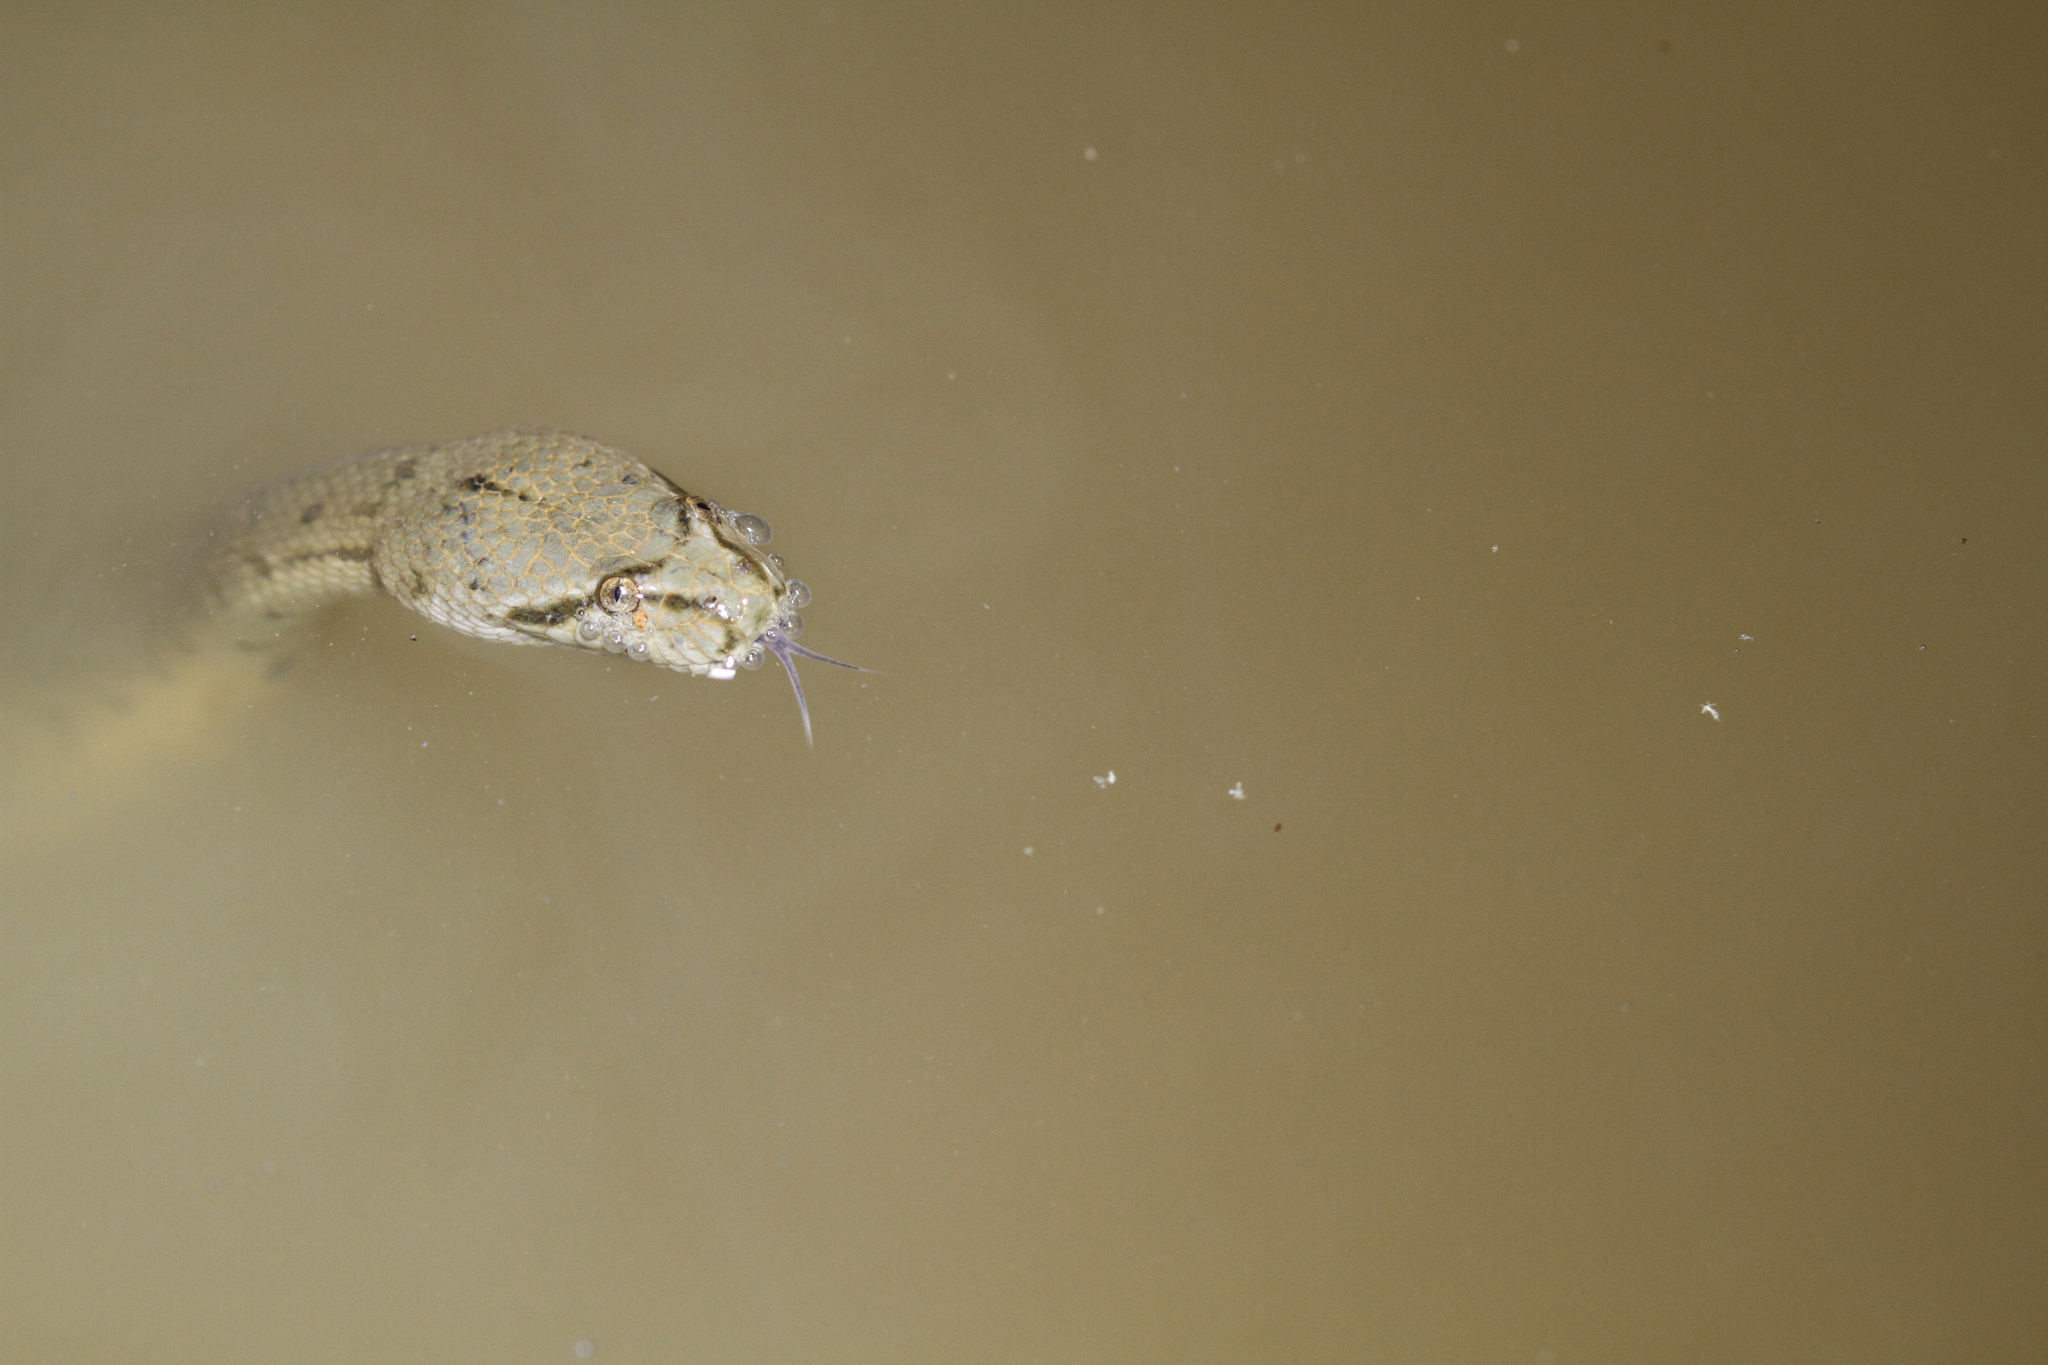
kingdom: Animalia
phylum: Chordata
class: Squamata
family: Homalopsidae
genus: Cerberus
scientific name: Cerberus schneiderii
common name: Southeast asian bockadam
